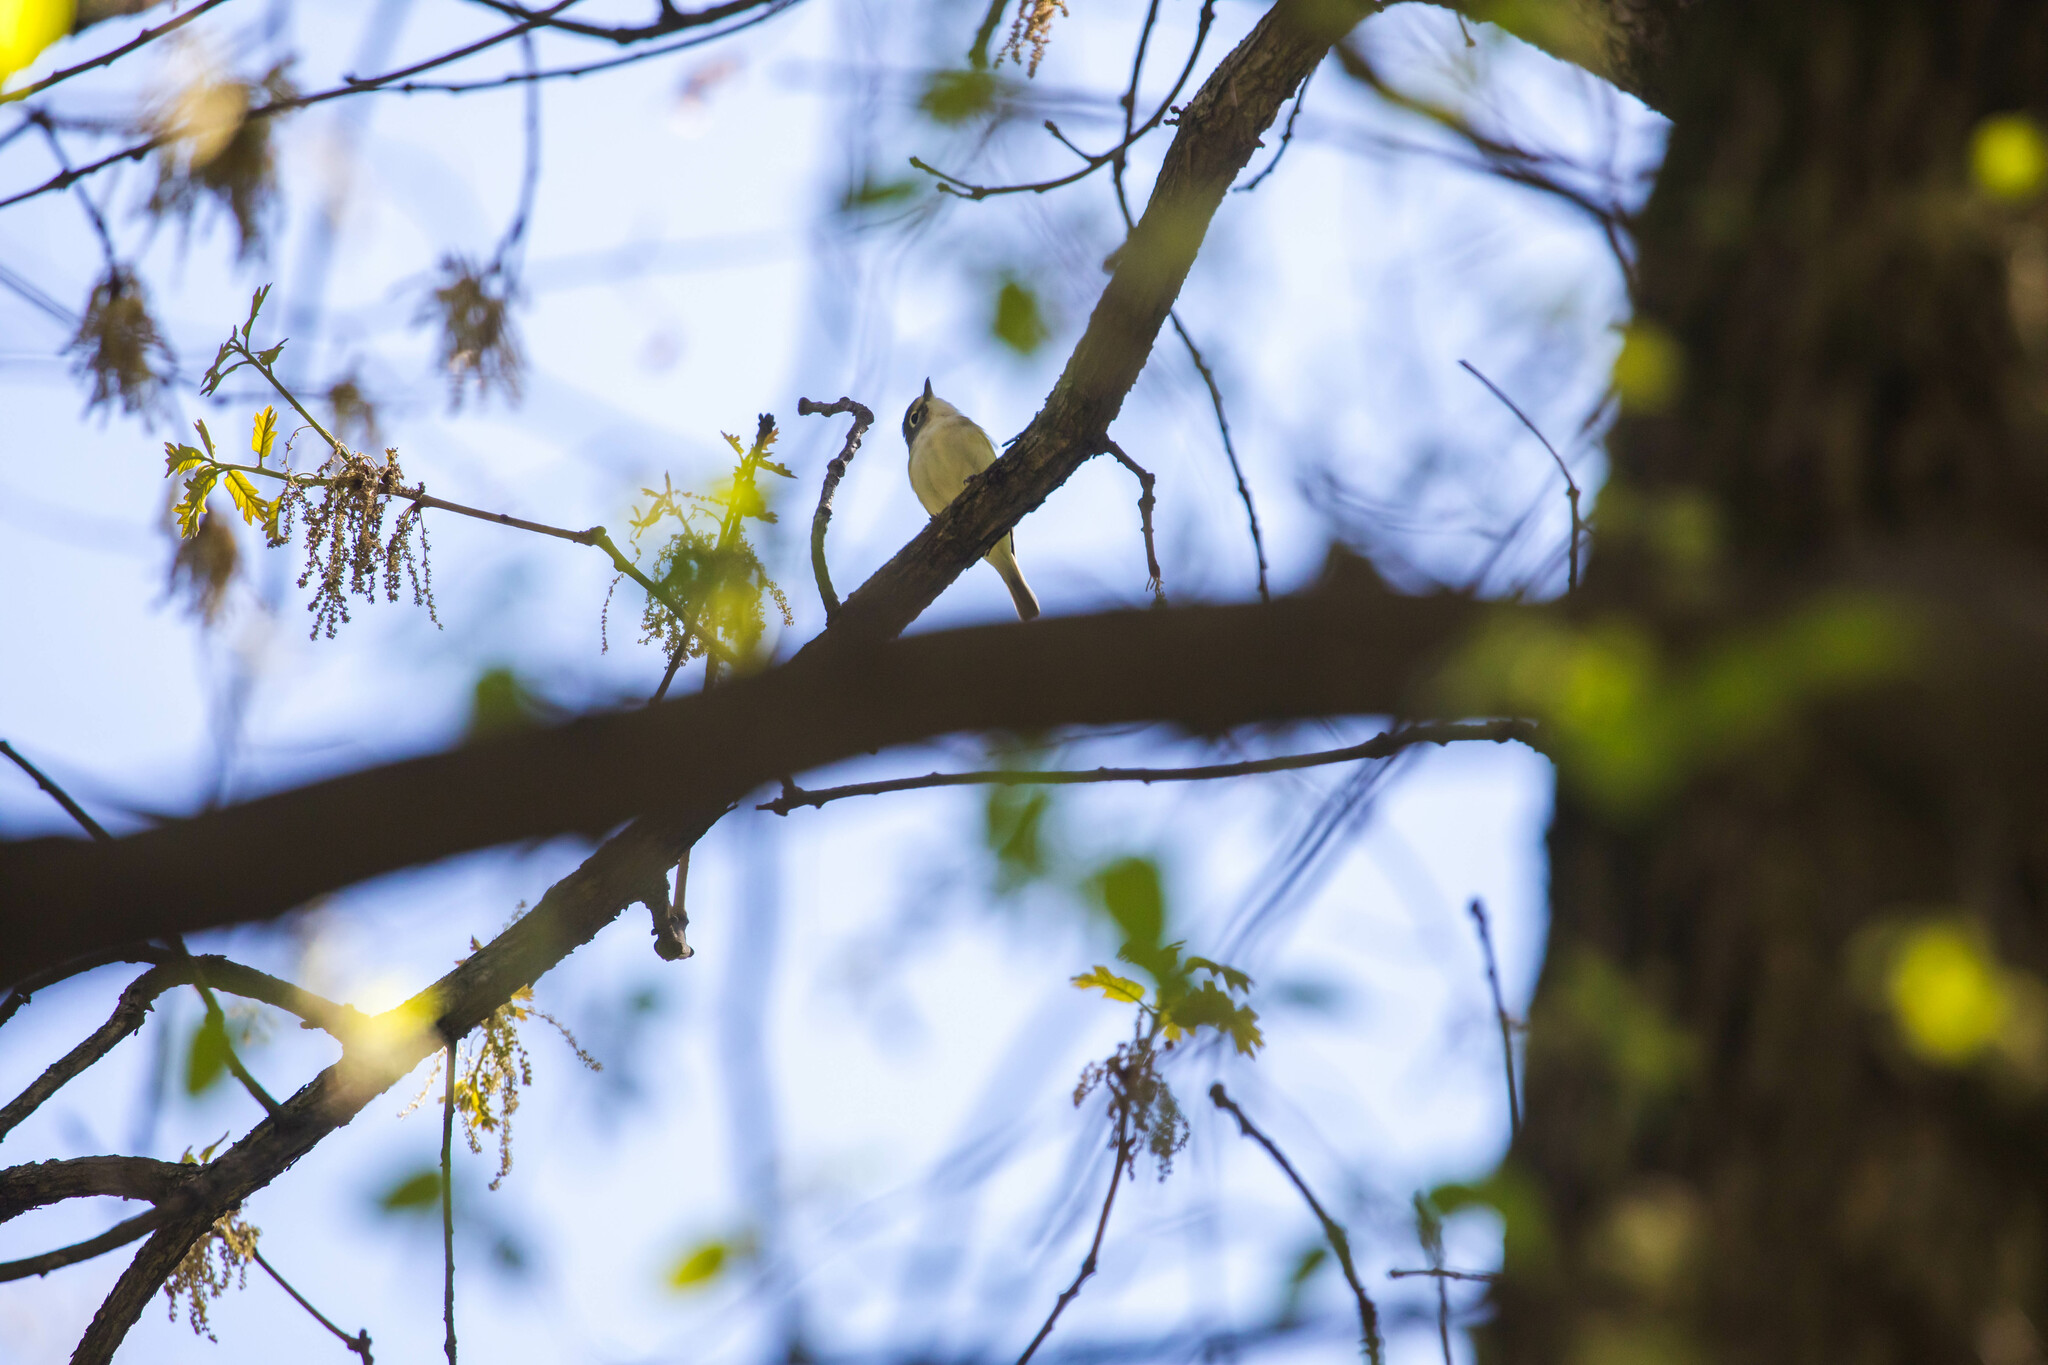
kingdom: Animalia
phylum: Chordata
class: Aves
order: Passeriformes
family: Vireonidae
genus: Vireo
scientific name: Vireo solitarius
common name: Blue-headed vireo
